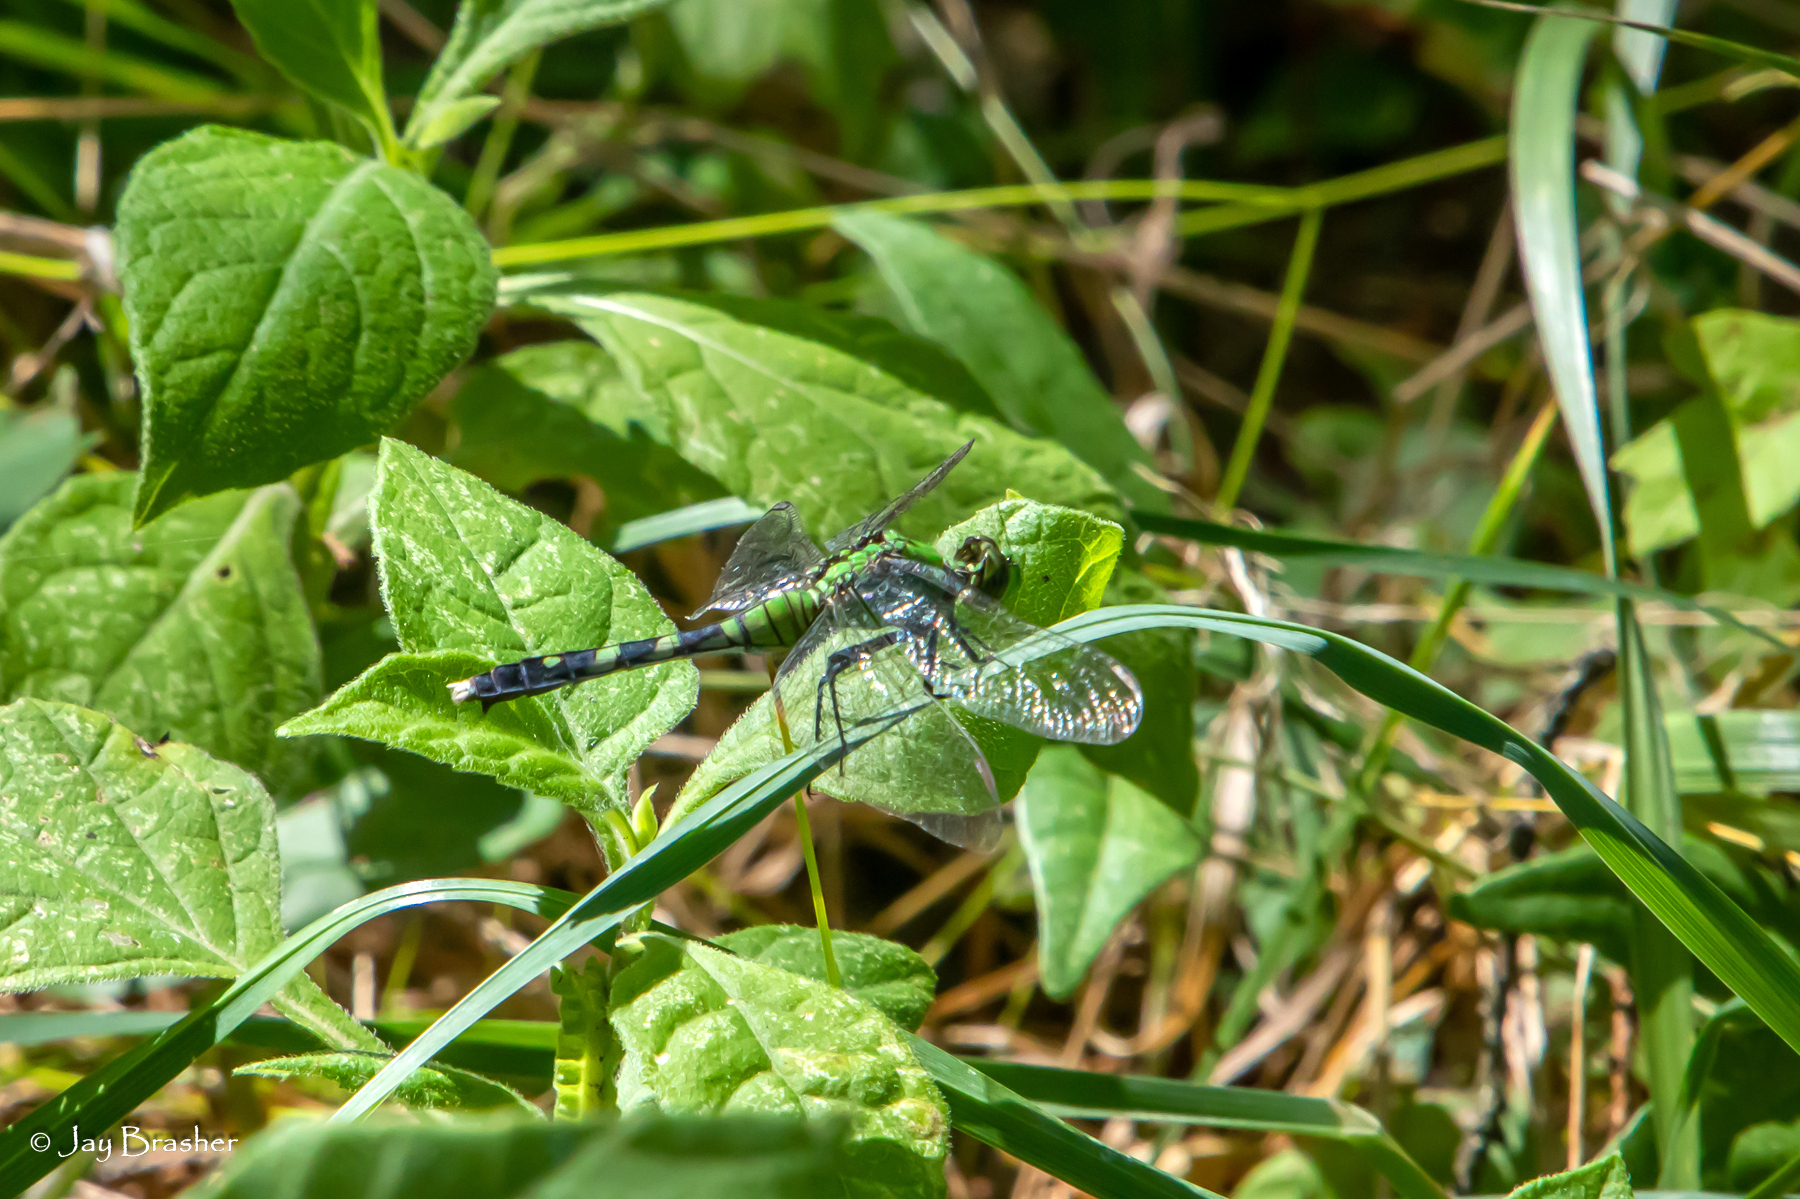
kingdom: Animalia
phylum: Arthropoda
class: Insecta
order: Odonata
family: Libellulidae
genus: Erythemis
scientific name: Erythemis simplicicollis
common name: Eastern pondhawk
